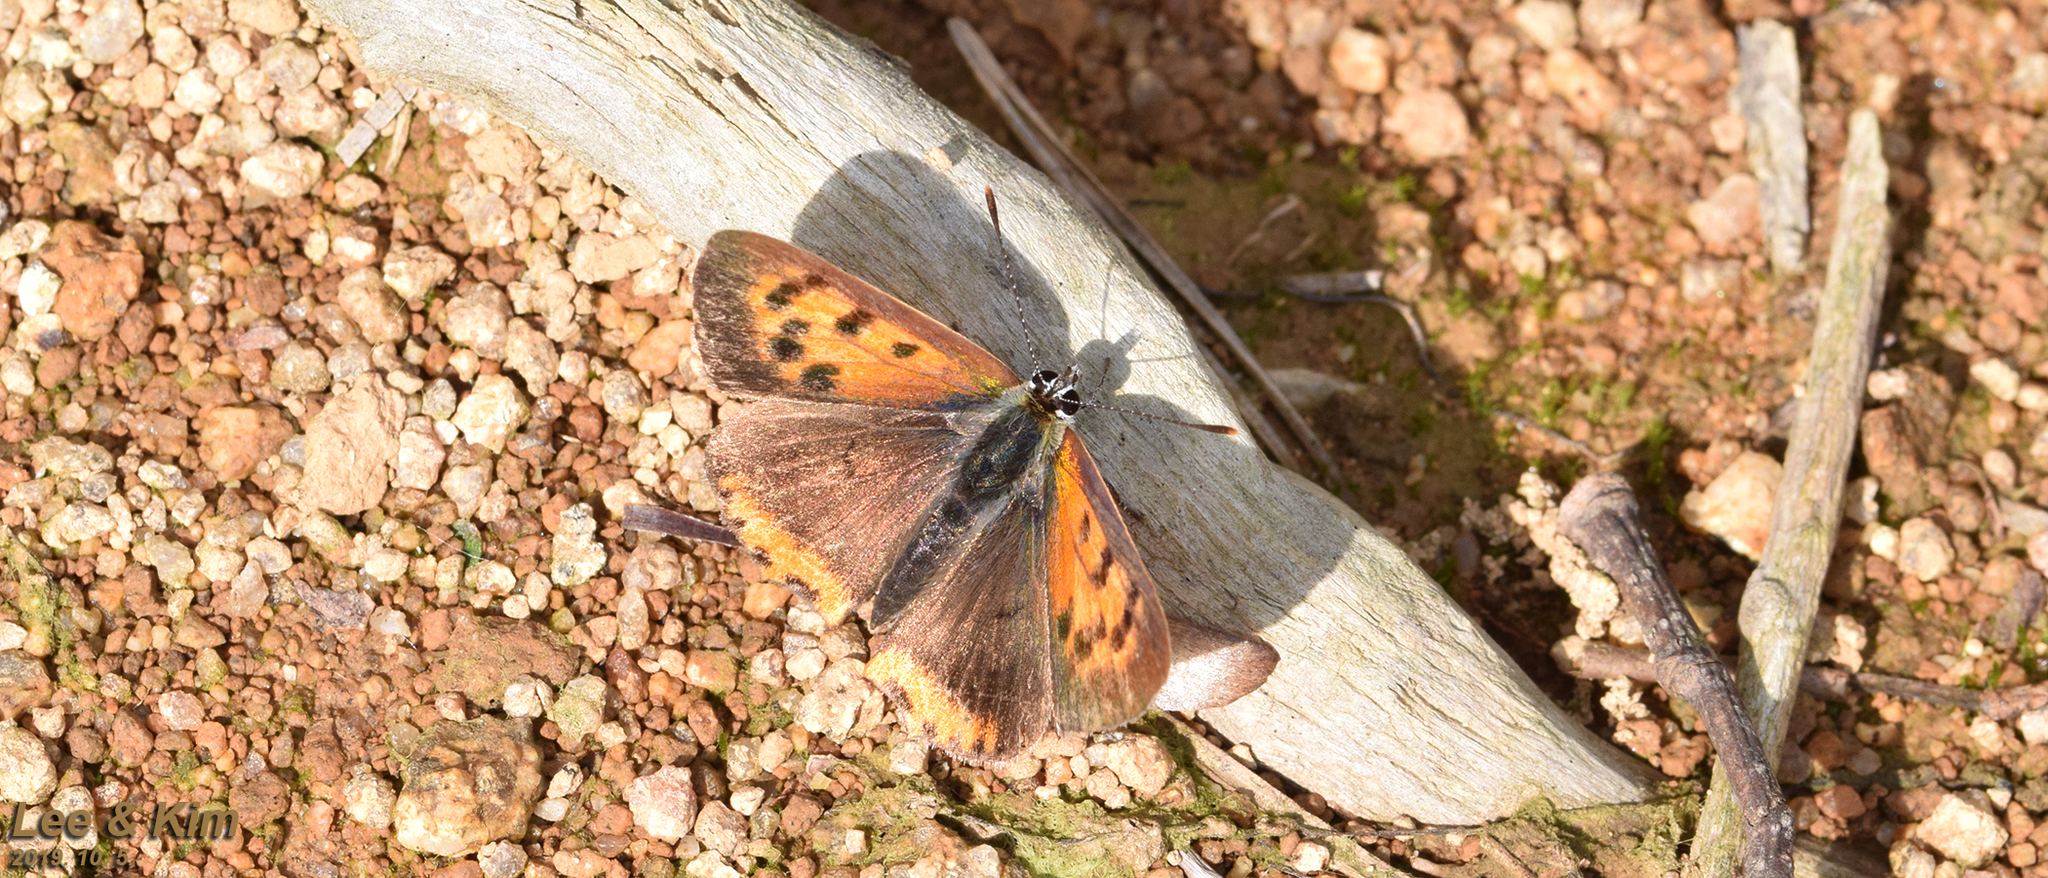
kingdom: Animalia
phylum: Arthropoda
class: Insecta
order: Lepidoptera
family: Lycaenidae
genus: Lycaena
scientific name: Lycaena phlaeas
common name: Small copper
